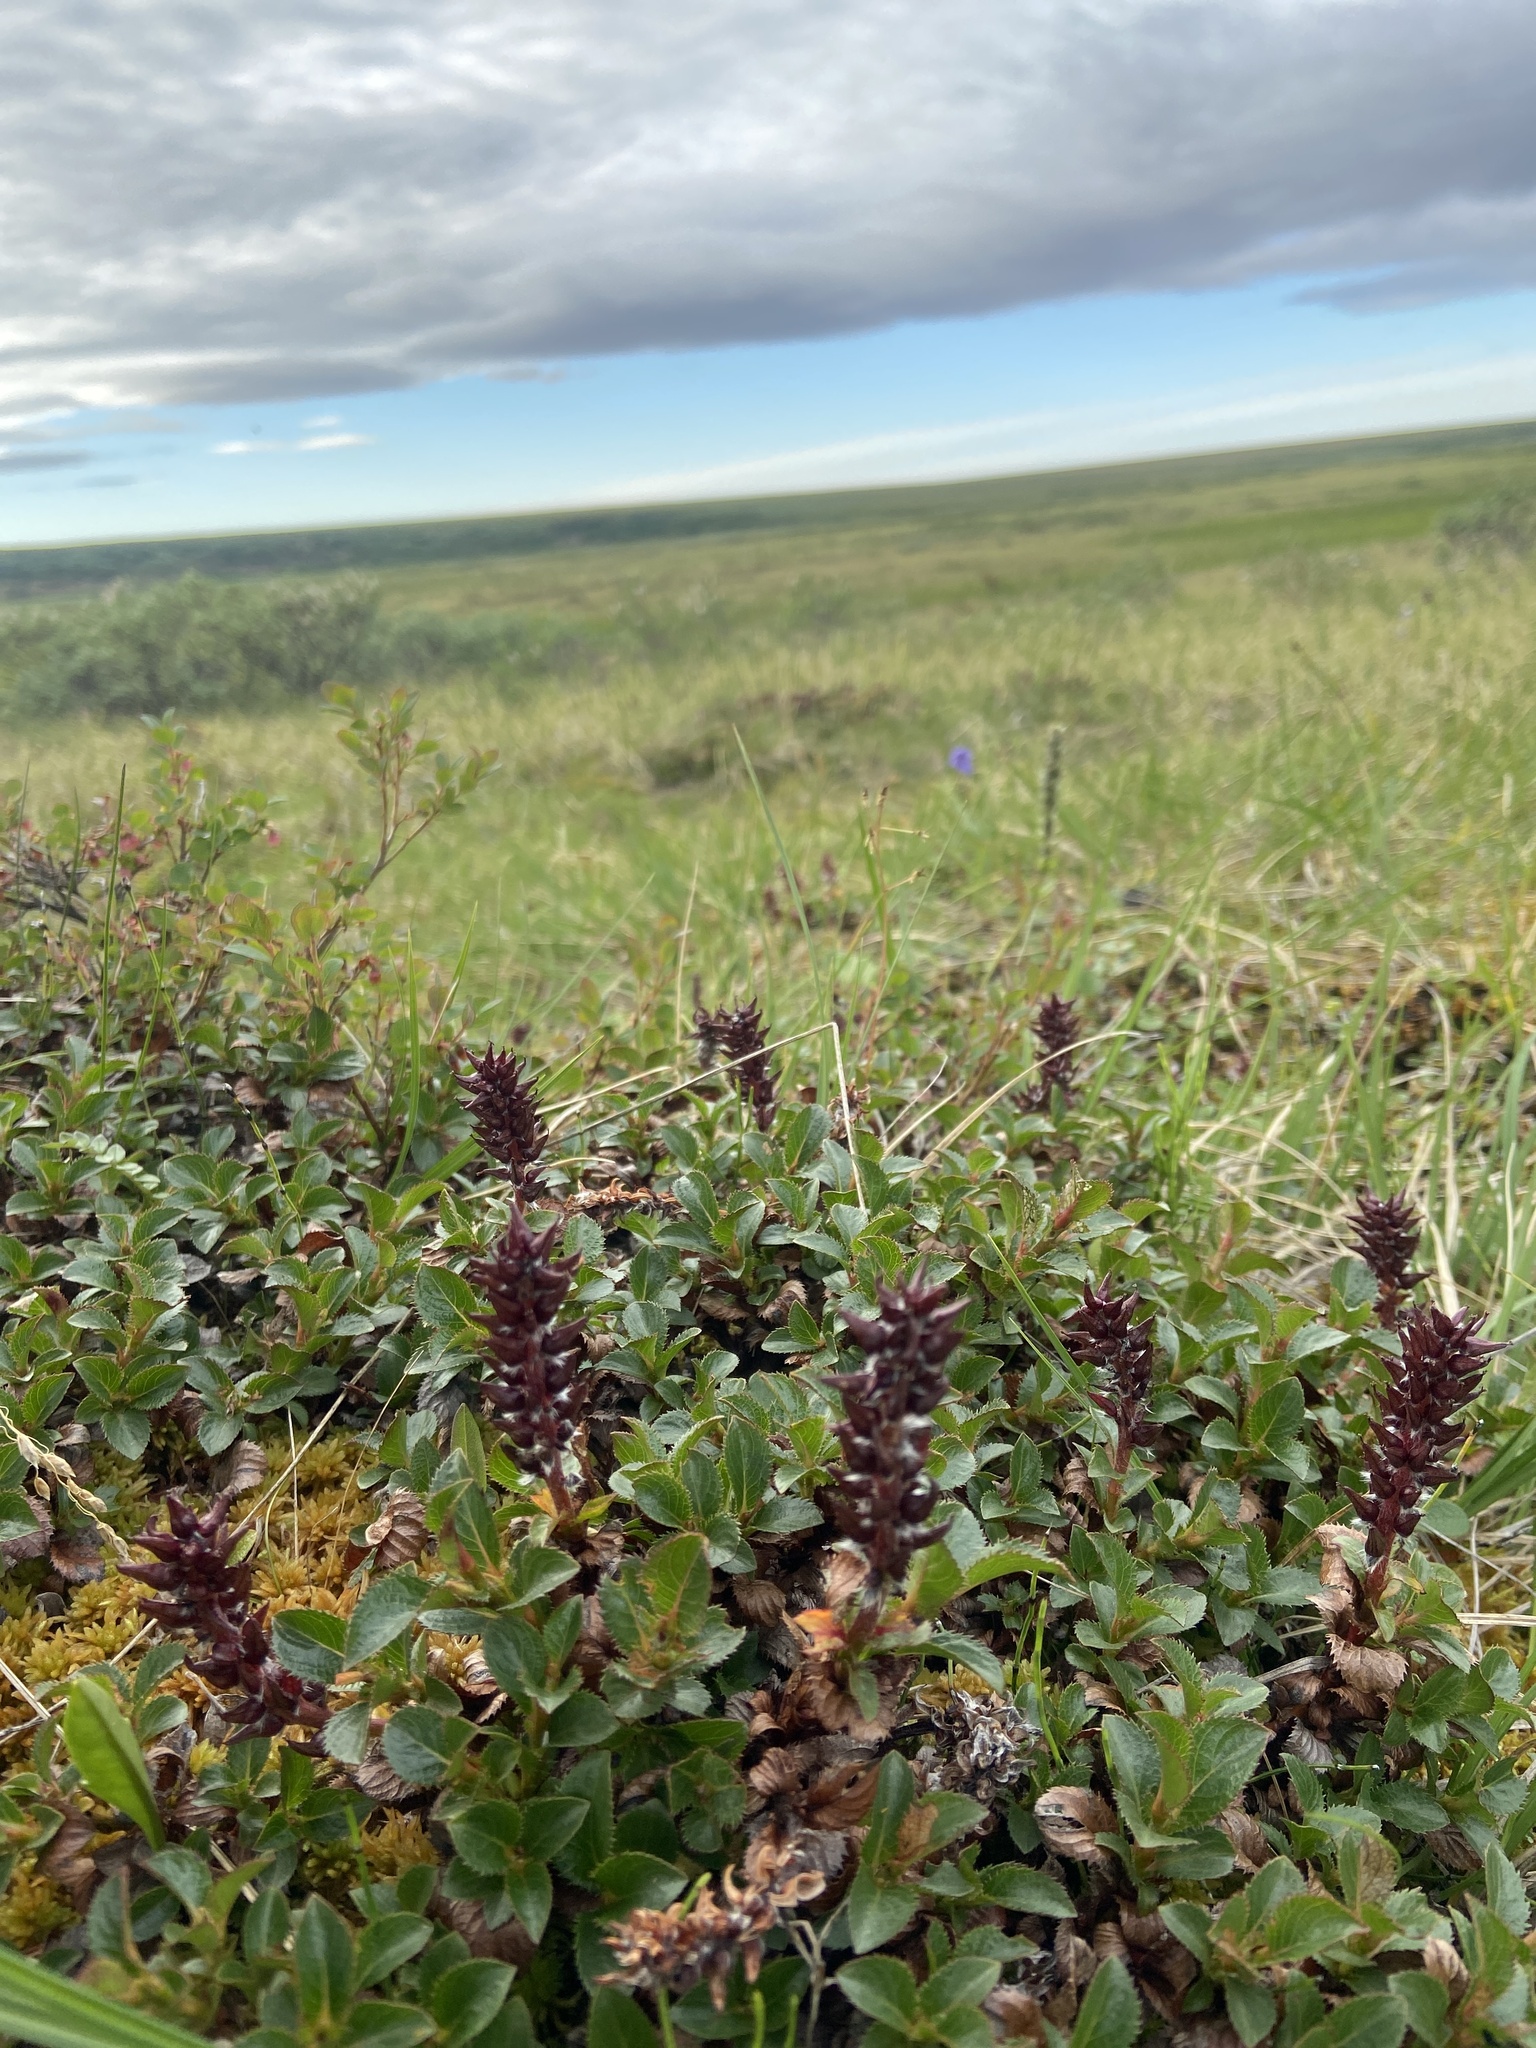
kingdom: Plantae
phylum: Tracheophyta
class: Magnoliopsida
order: Malpighiales
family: Salicaceae
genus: Salix
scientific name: Salix tschuktschorum
